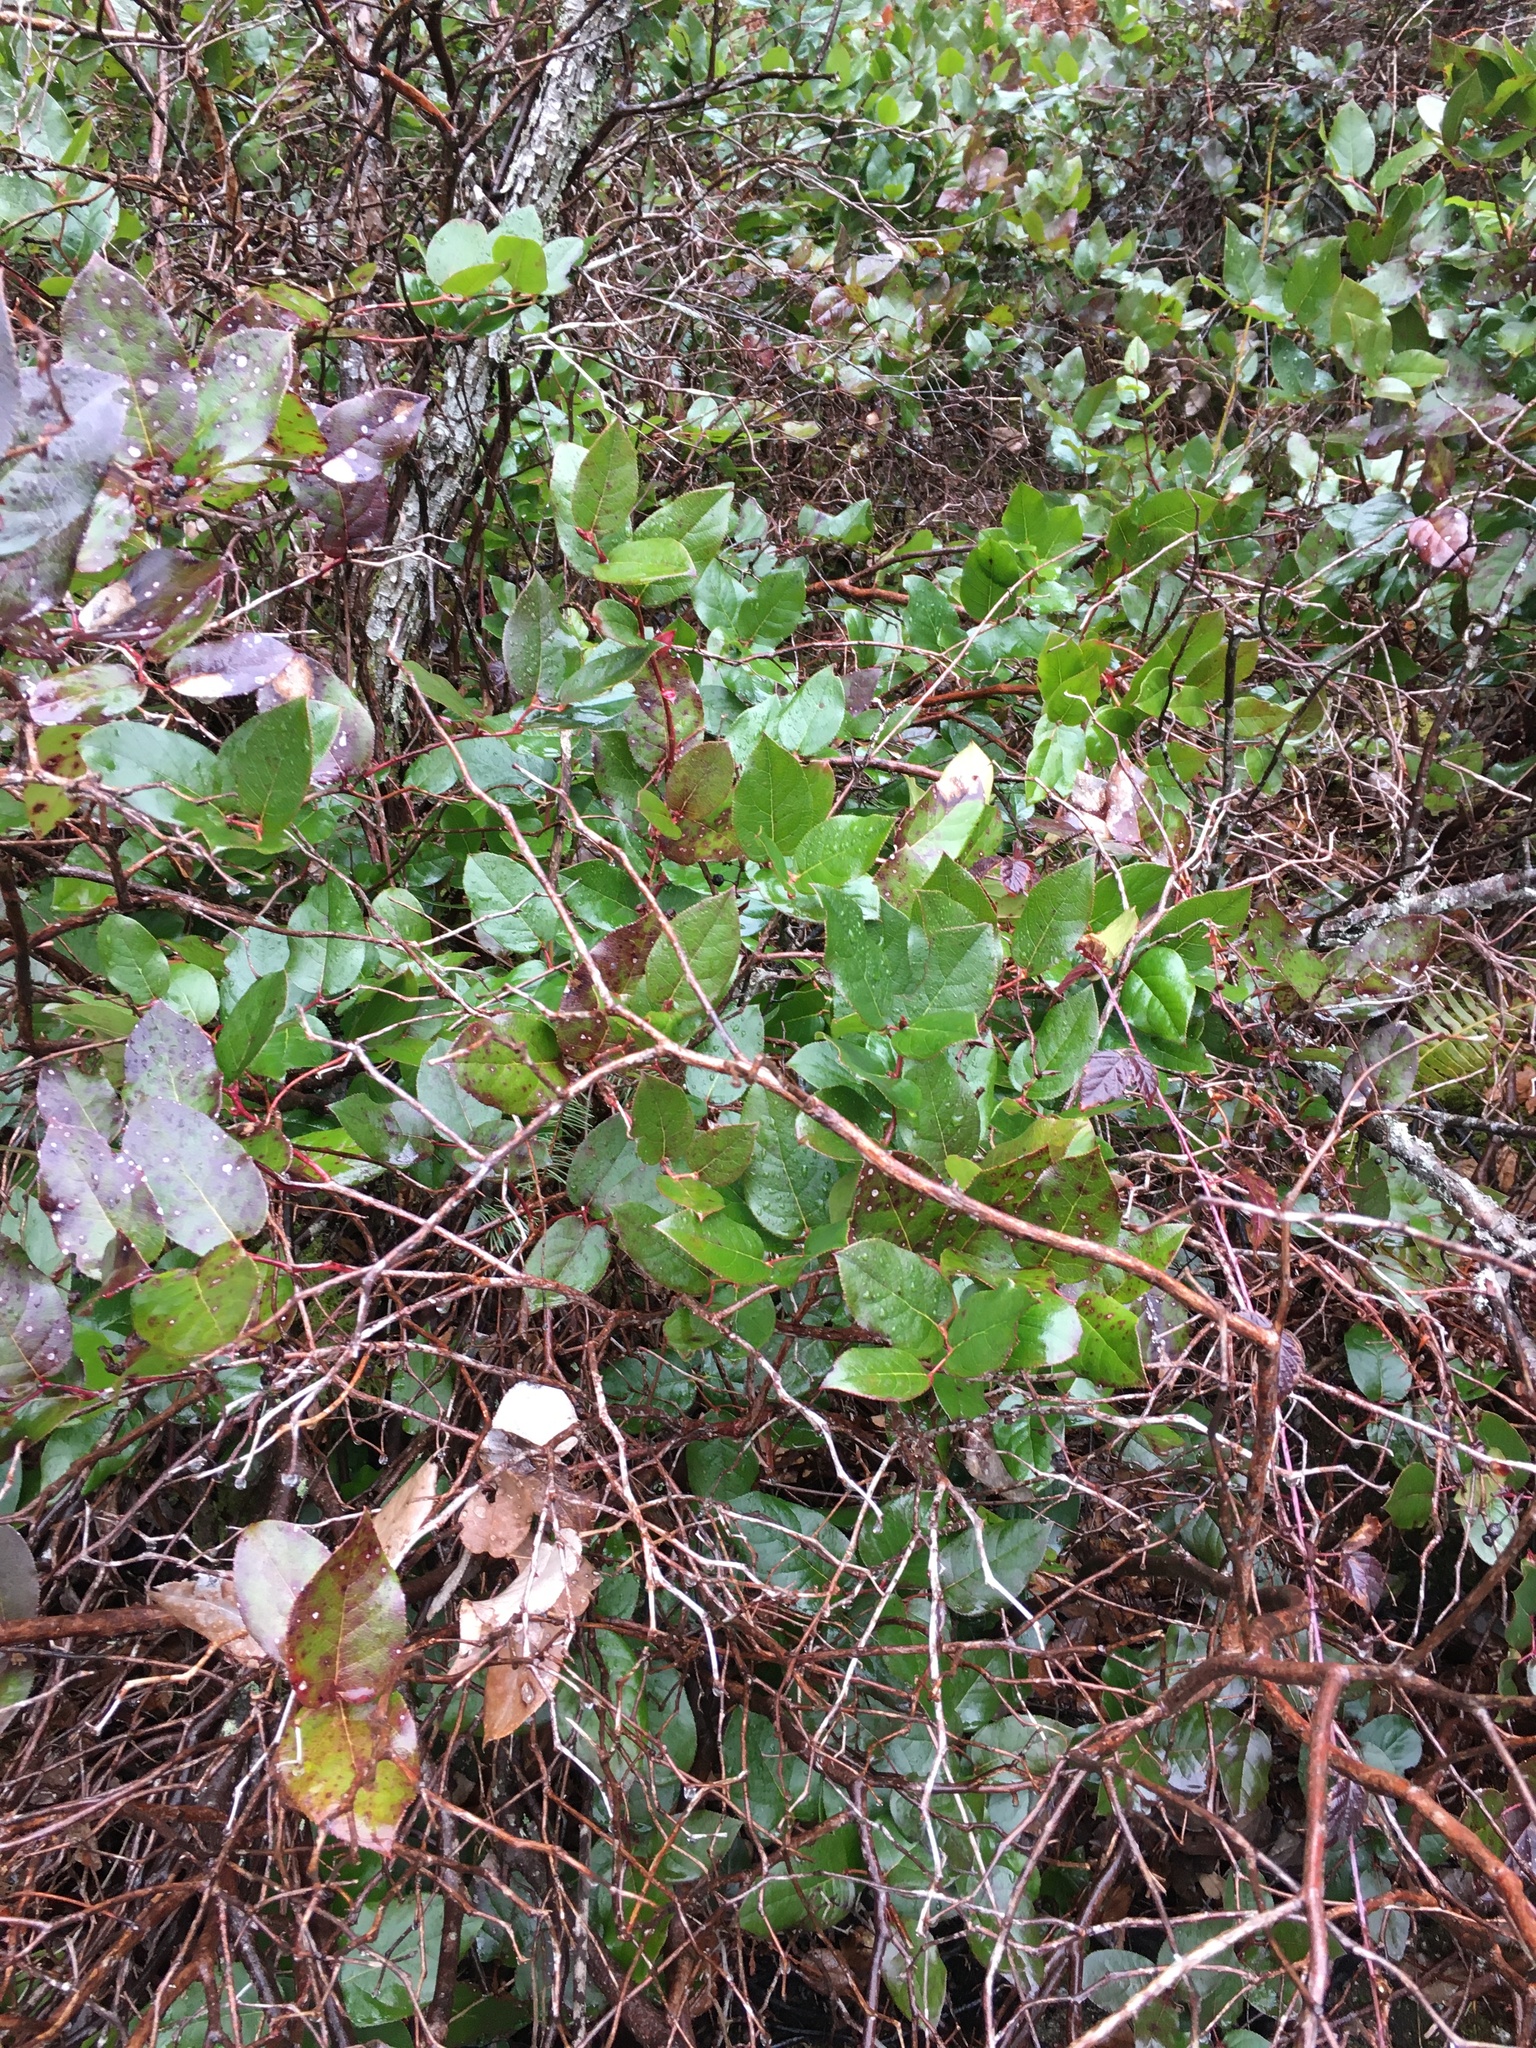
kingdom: Plantae
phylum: Tracheophyta
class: Magnoliopsida
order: Ericales
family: Ericaceae
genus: Gaultheria
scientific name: Gaultheria shallon
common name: Shallon
